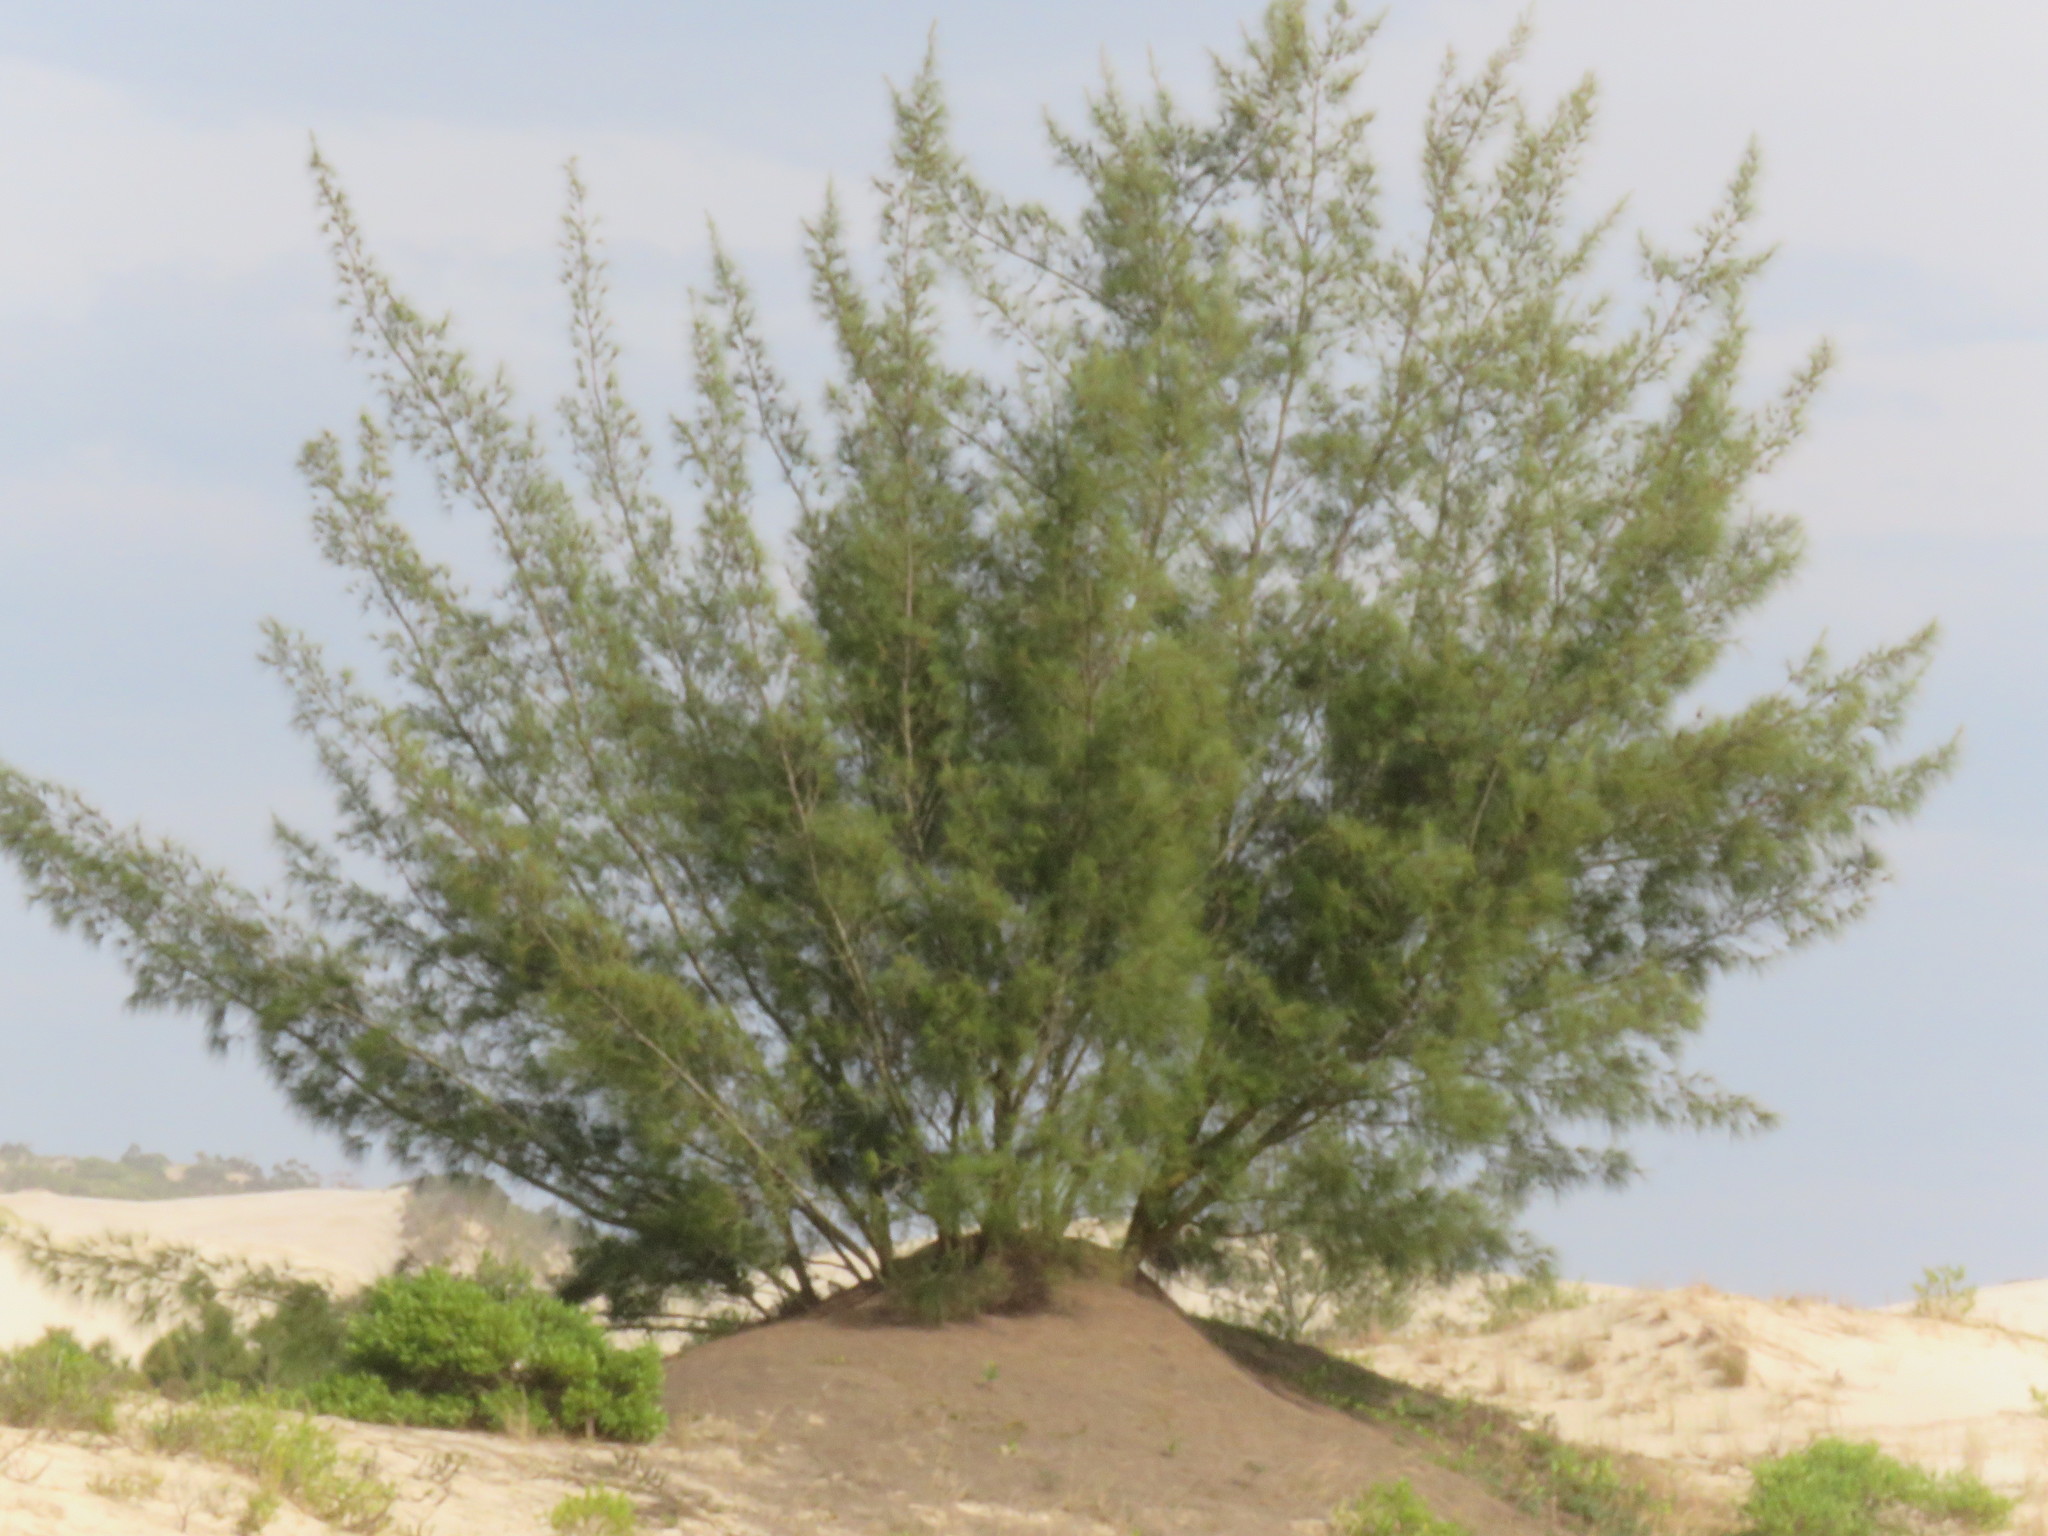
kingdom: Plantae
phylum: Tracheophyta
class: Magnoliopsida
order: Fagales
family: Casuarinaceae
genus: Casuarina
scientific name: Casuarina equisetifolia
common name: Beach sheoak
